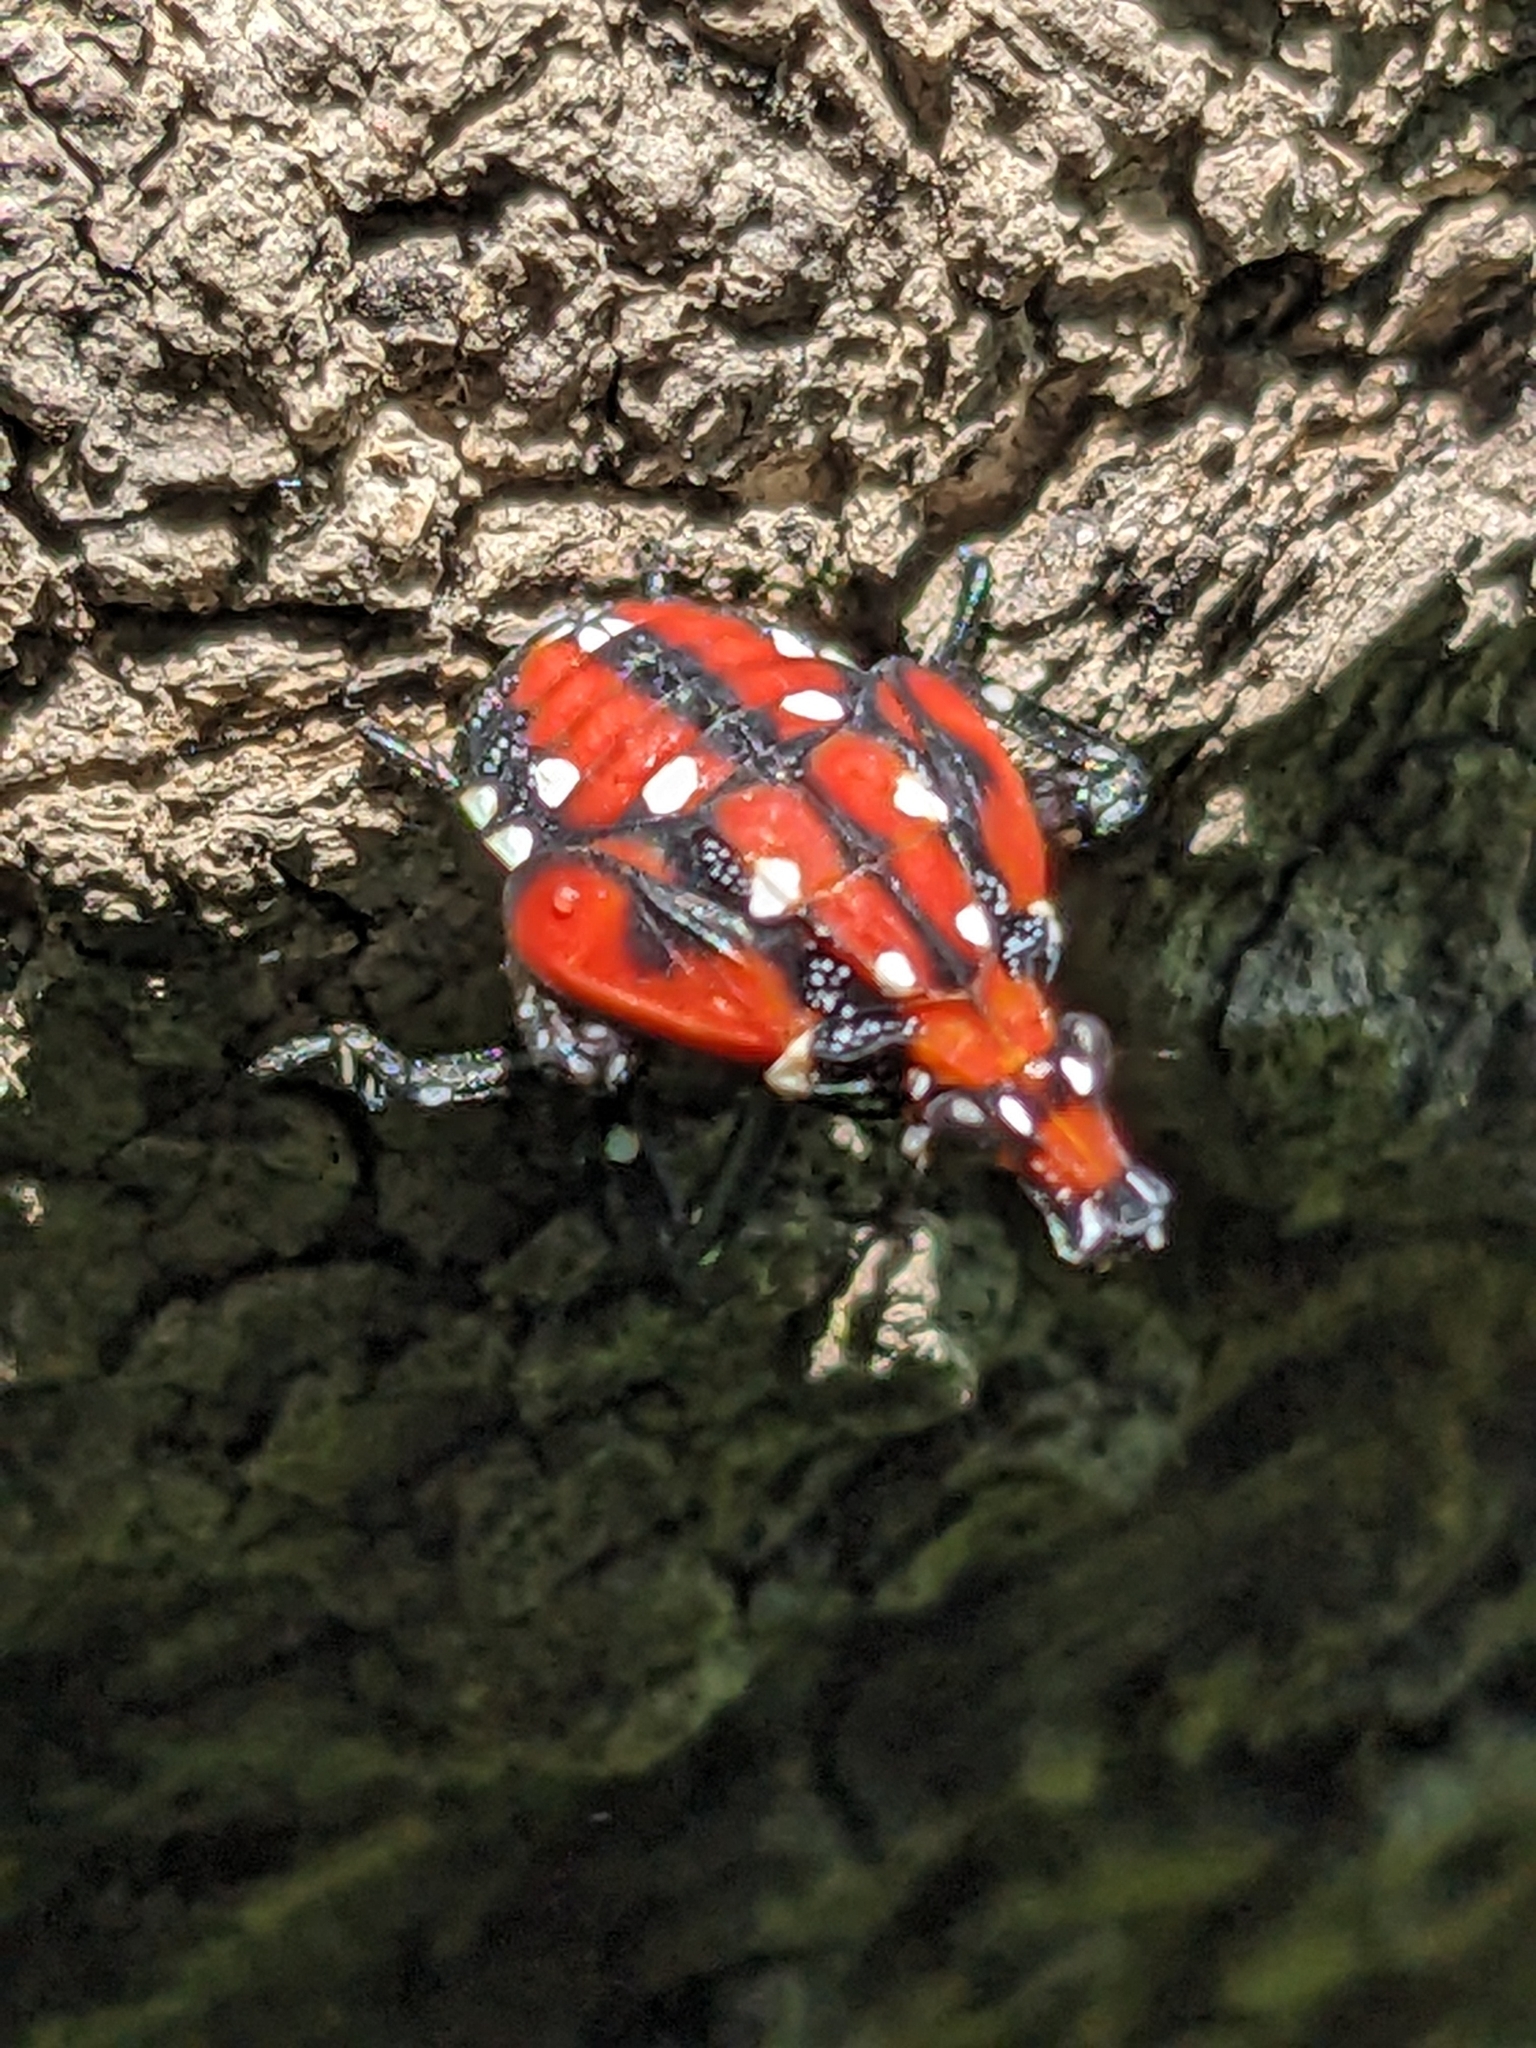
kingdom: Animalia
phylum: Arthropoda
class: Insecta
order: Hemiptera
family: Fulgoridae
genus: Lycorma
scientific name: Lycorma delicatula
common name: Spotted lanternfly
